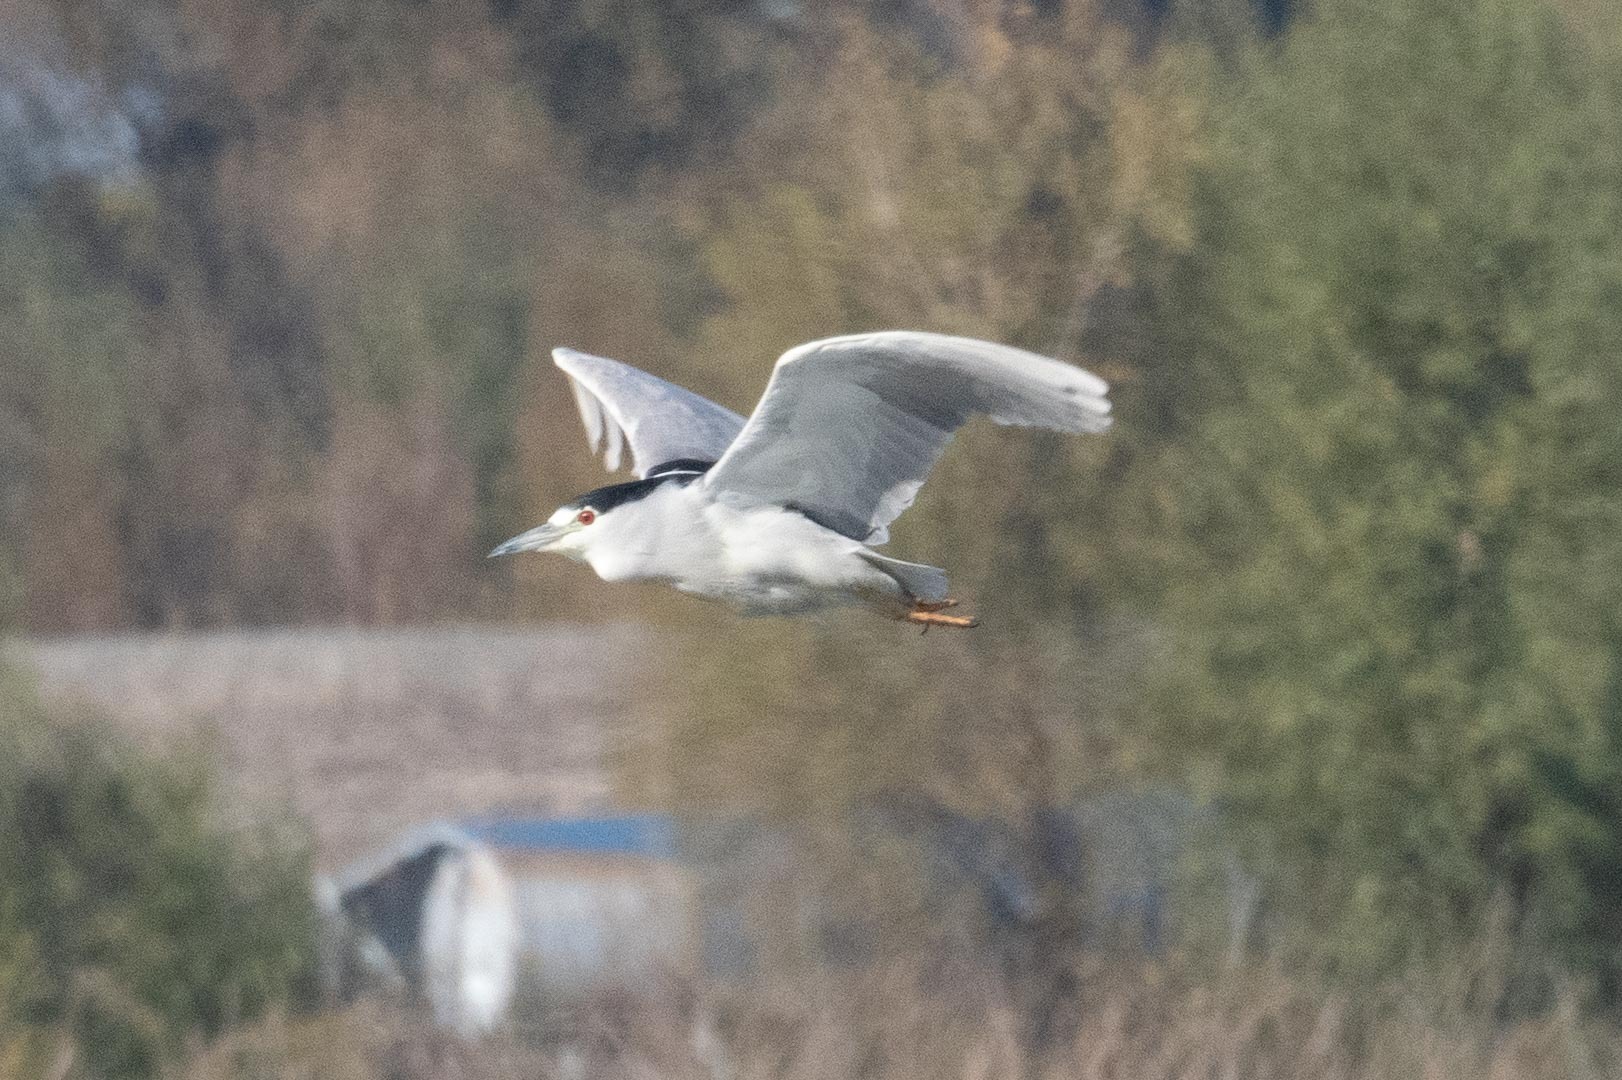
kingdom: Animalia
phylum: Chordata
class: Aves
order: Pelecaniformes
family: Ardeidae
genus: Nycticorax
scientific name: Nycticorax nycticorax
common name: Black-crowned night heron
